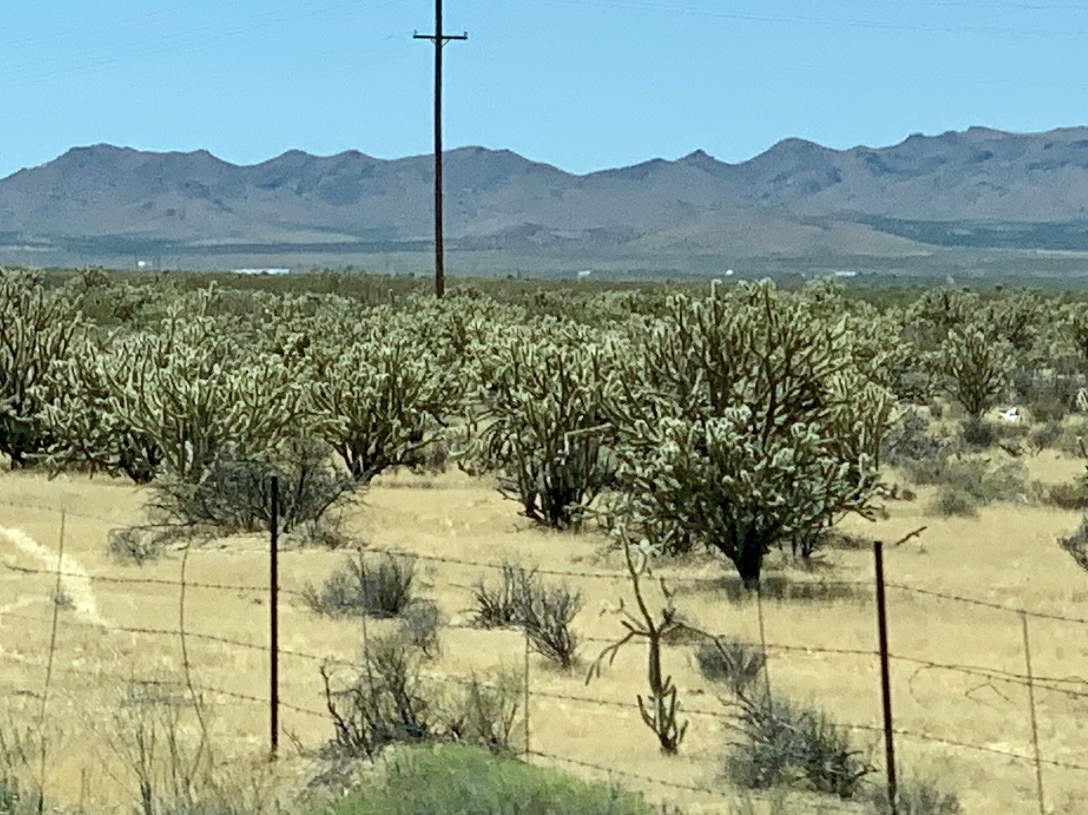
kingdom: Plantae
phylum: Tracheophyta
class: Magnoliopsida
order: Caryophyllales
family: Cactaceae
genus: Cylindropuntia
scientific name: Cylindropuntia acanthocarpa
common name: Buckhorn cholla
